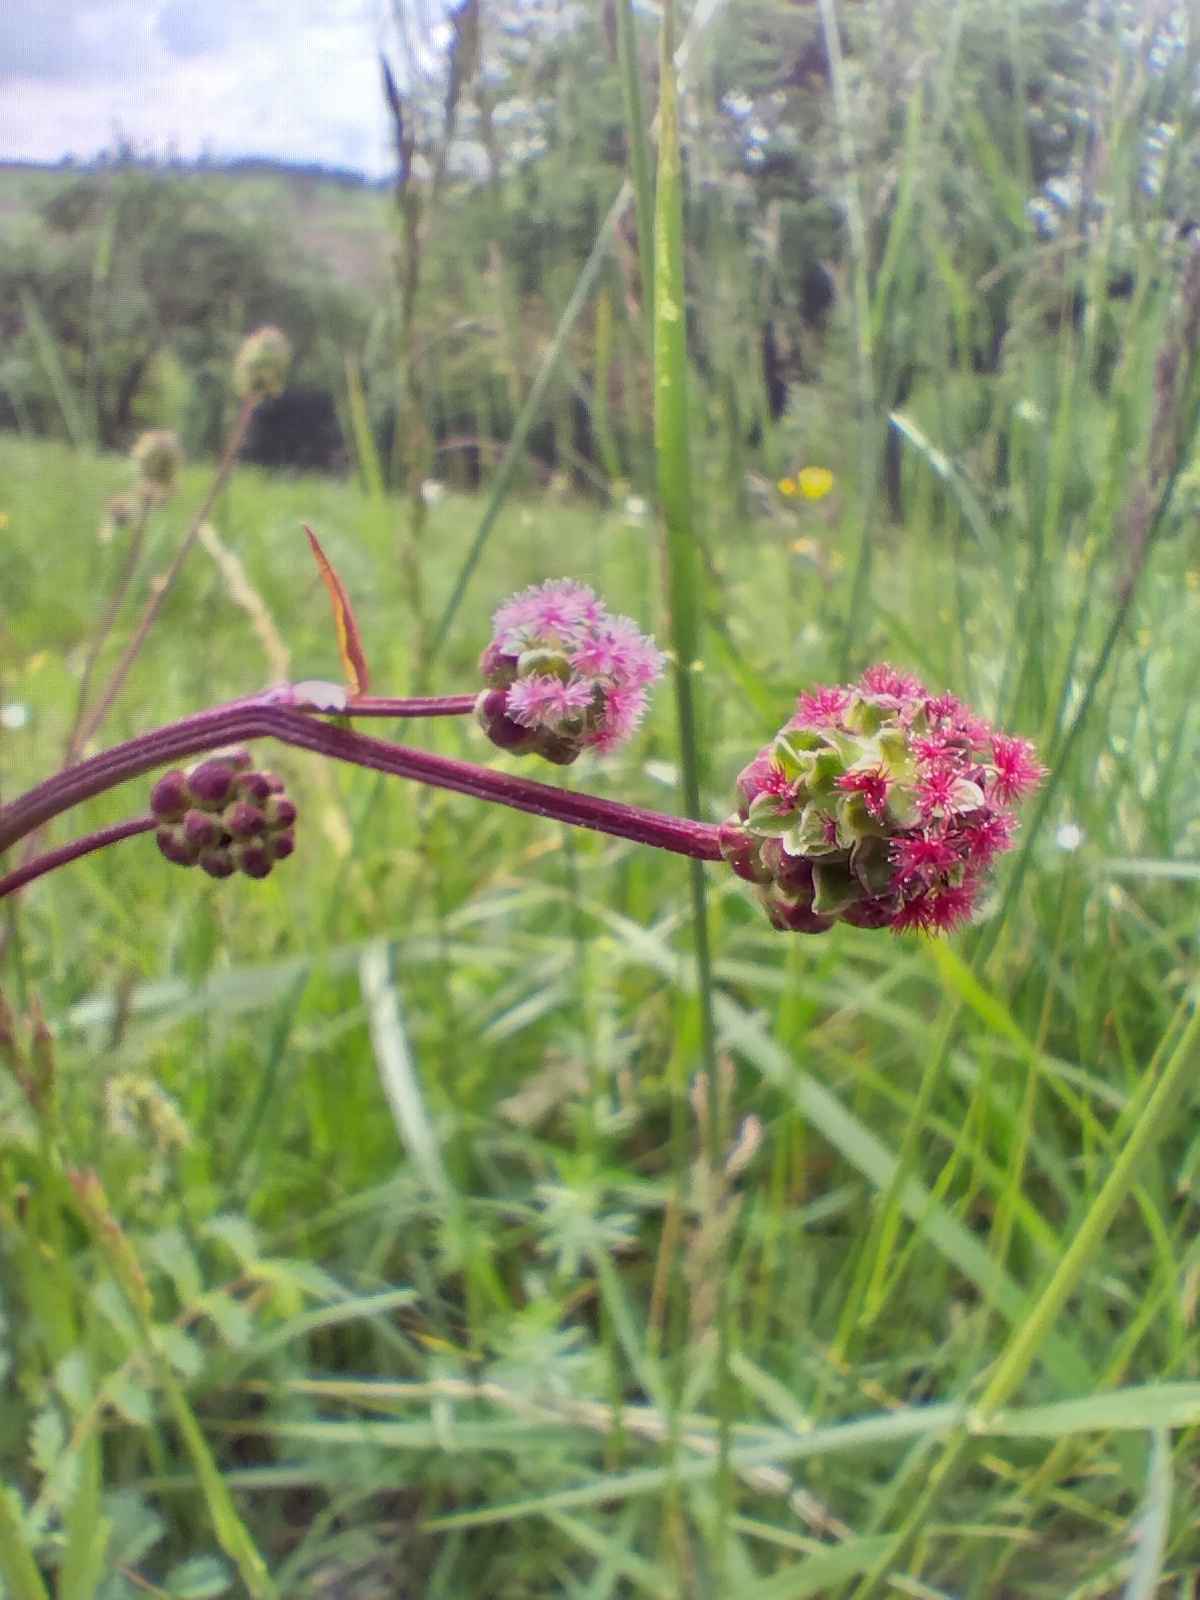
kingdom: Plantae
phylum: Tracheophyta
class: Magnoliopsida
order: Rosales
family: Rosaceae
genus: Poterium
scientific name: Poterium sanguisorba
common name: Salad burnet
